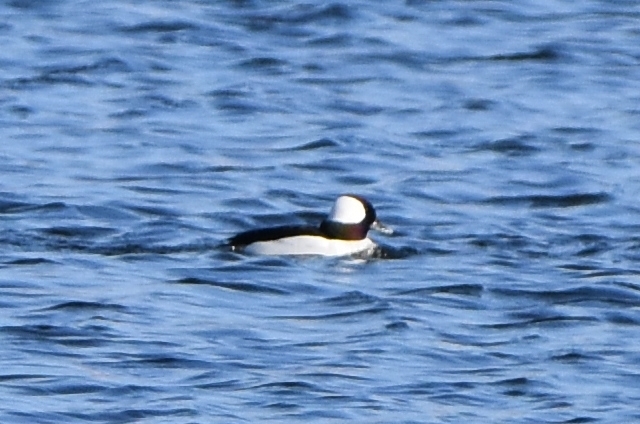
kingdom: Animalia
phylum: Chordata
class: Aves
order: Anseriformes
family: Anatidae
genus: Bucephala
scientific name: Bucephala albeola
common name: Bufflehead
